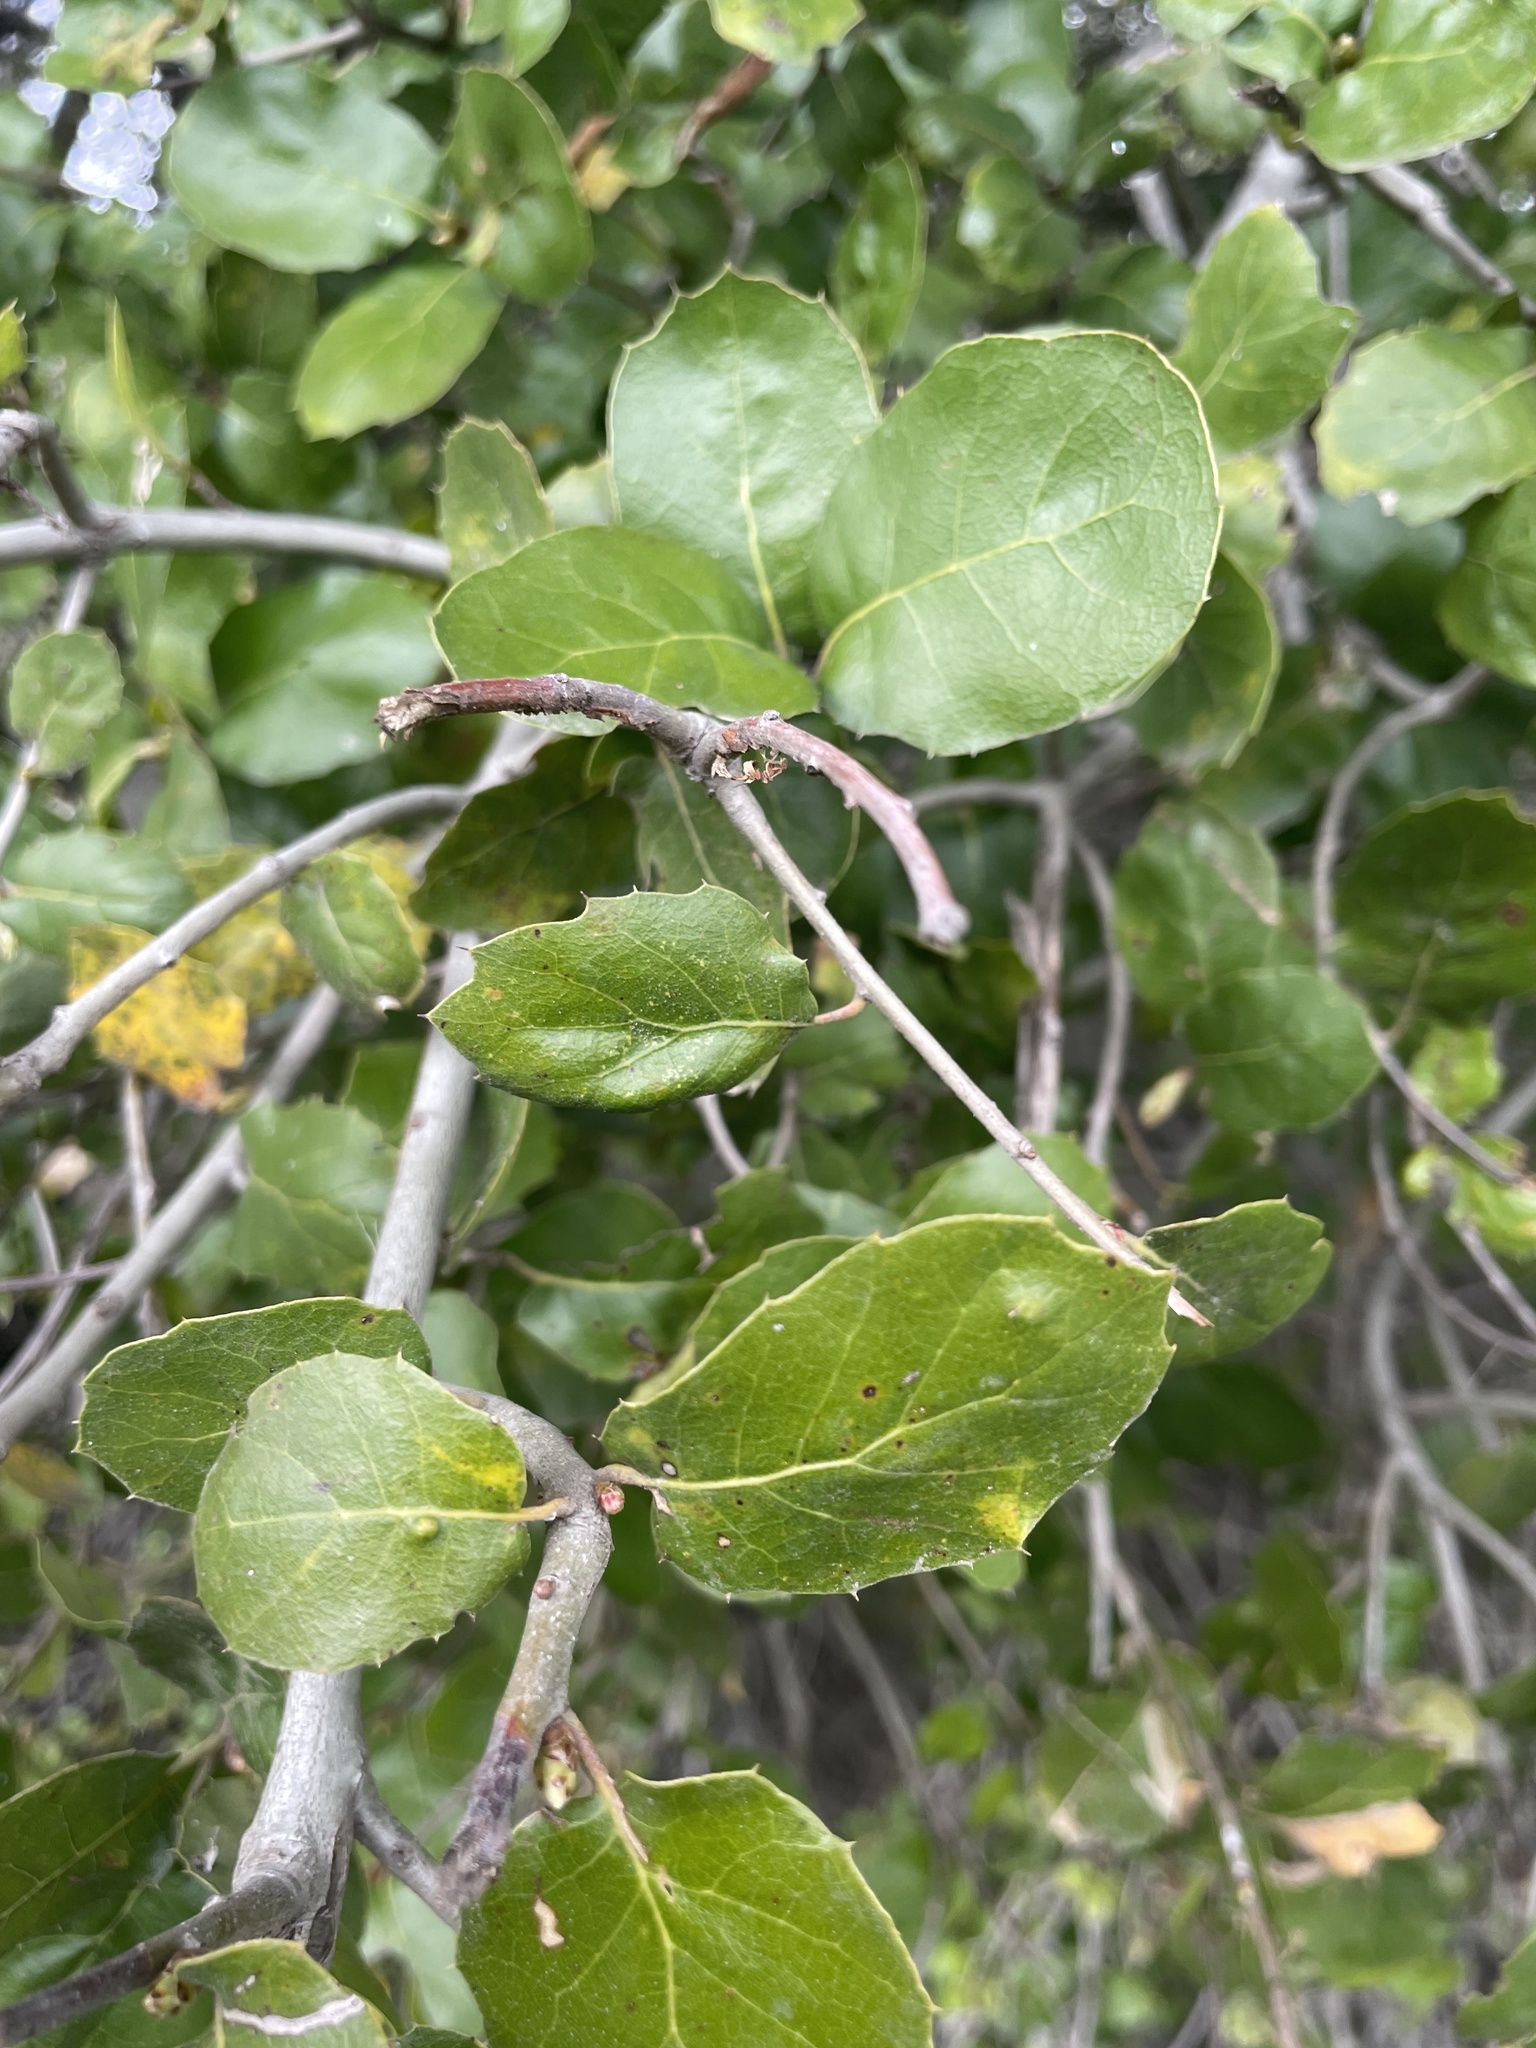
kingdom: Plantae
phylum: Tracheophyta
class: Magnoliopsida
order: Fagales
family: Fagaceae
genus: Quercus
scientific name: Quercus agrifolia
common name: California live oak
